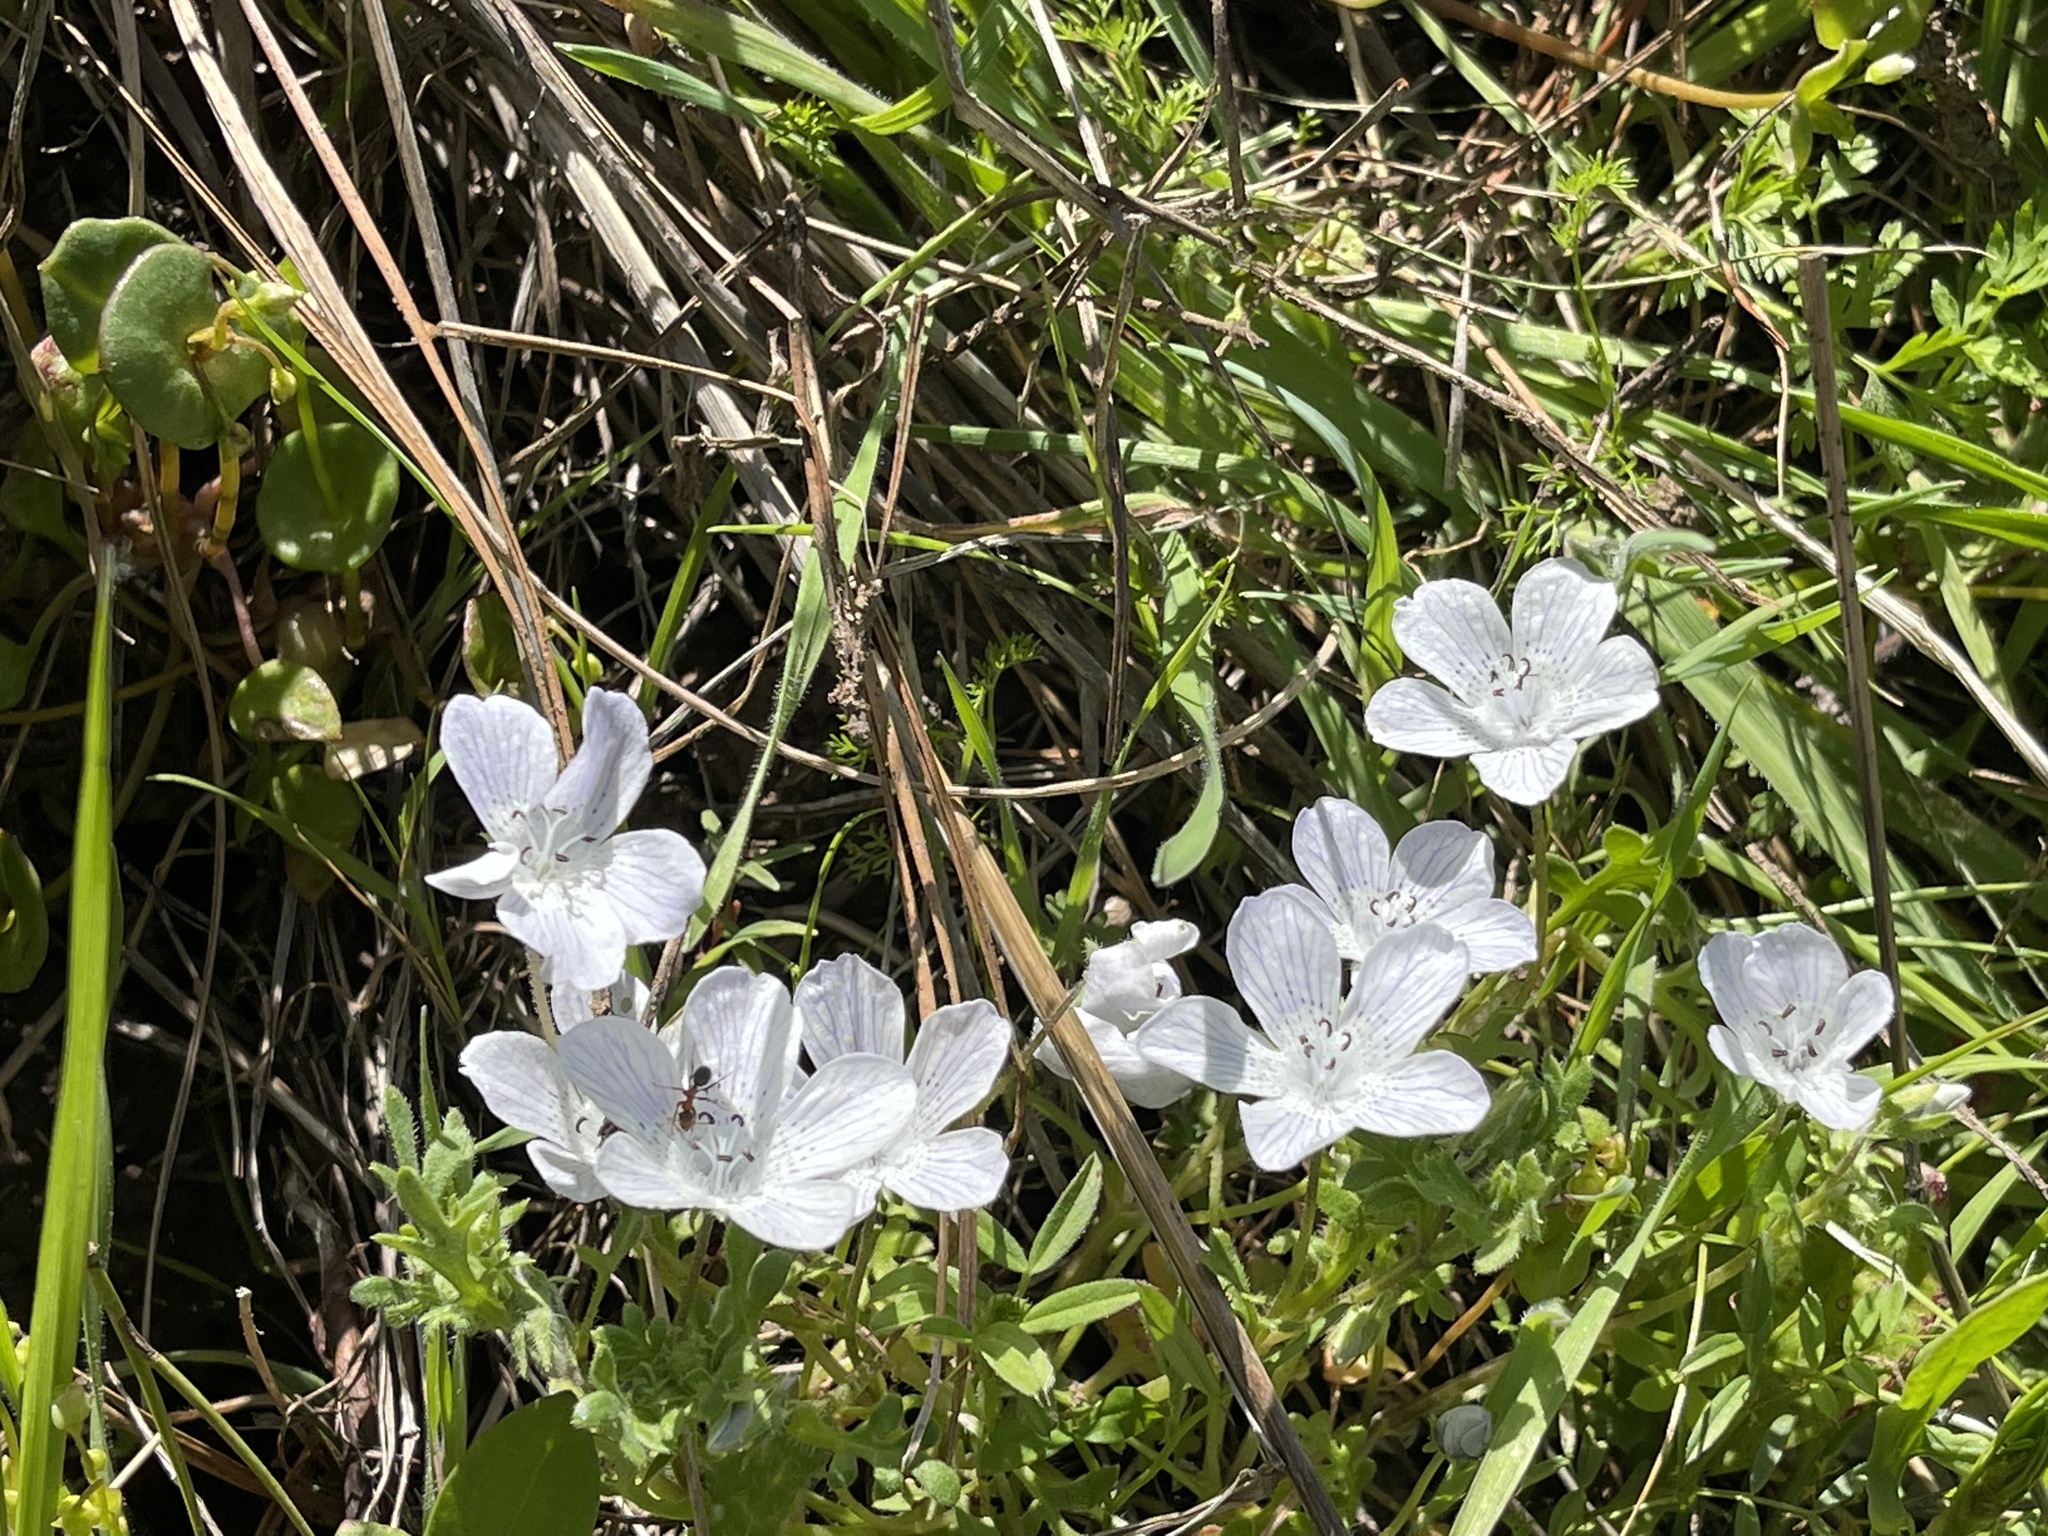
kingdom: Plantae
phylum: Tracheophyta
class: Magnoliopsida
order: Boraginales
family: Hydrophyllaceae
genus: Nemophila
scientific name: Nemophila menziesii
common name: Baby's-blue-eyes
